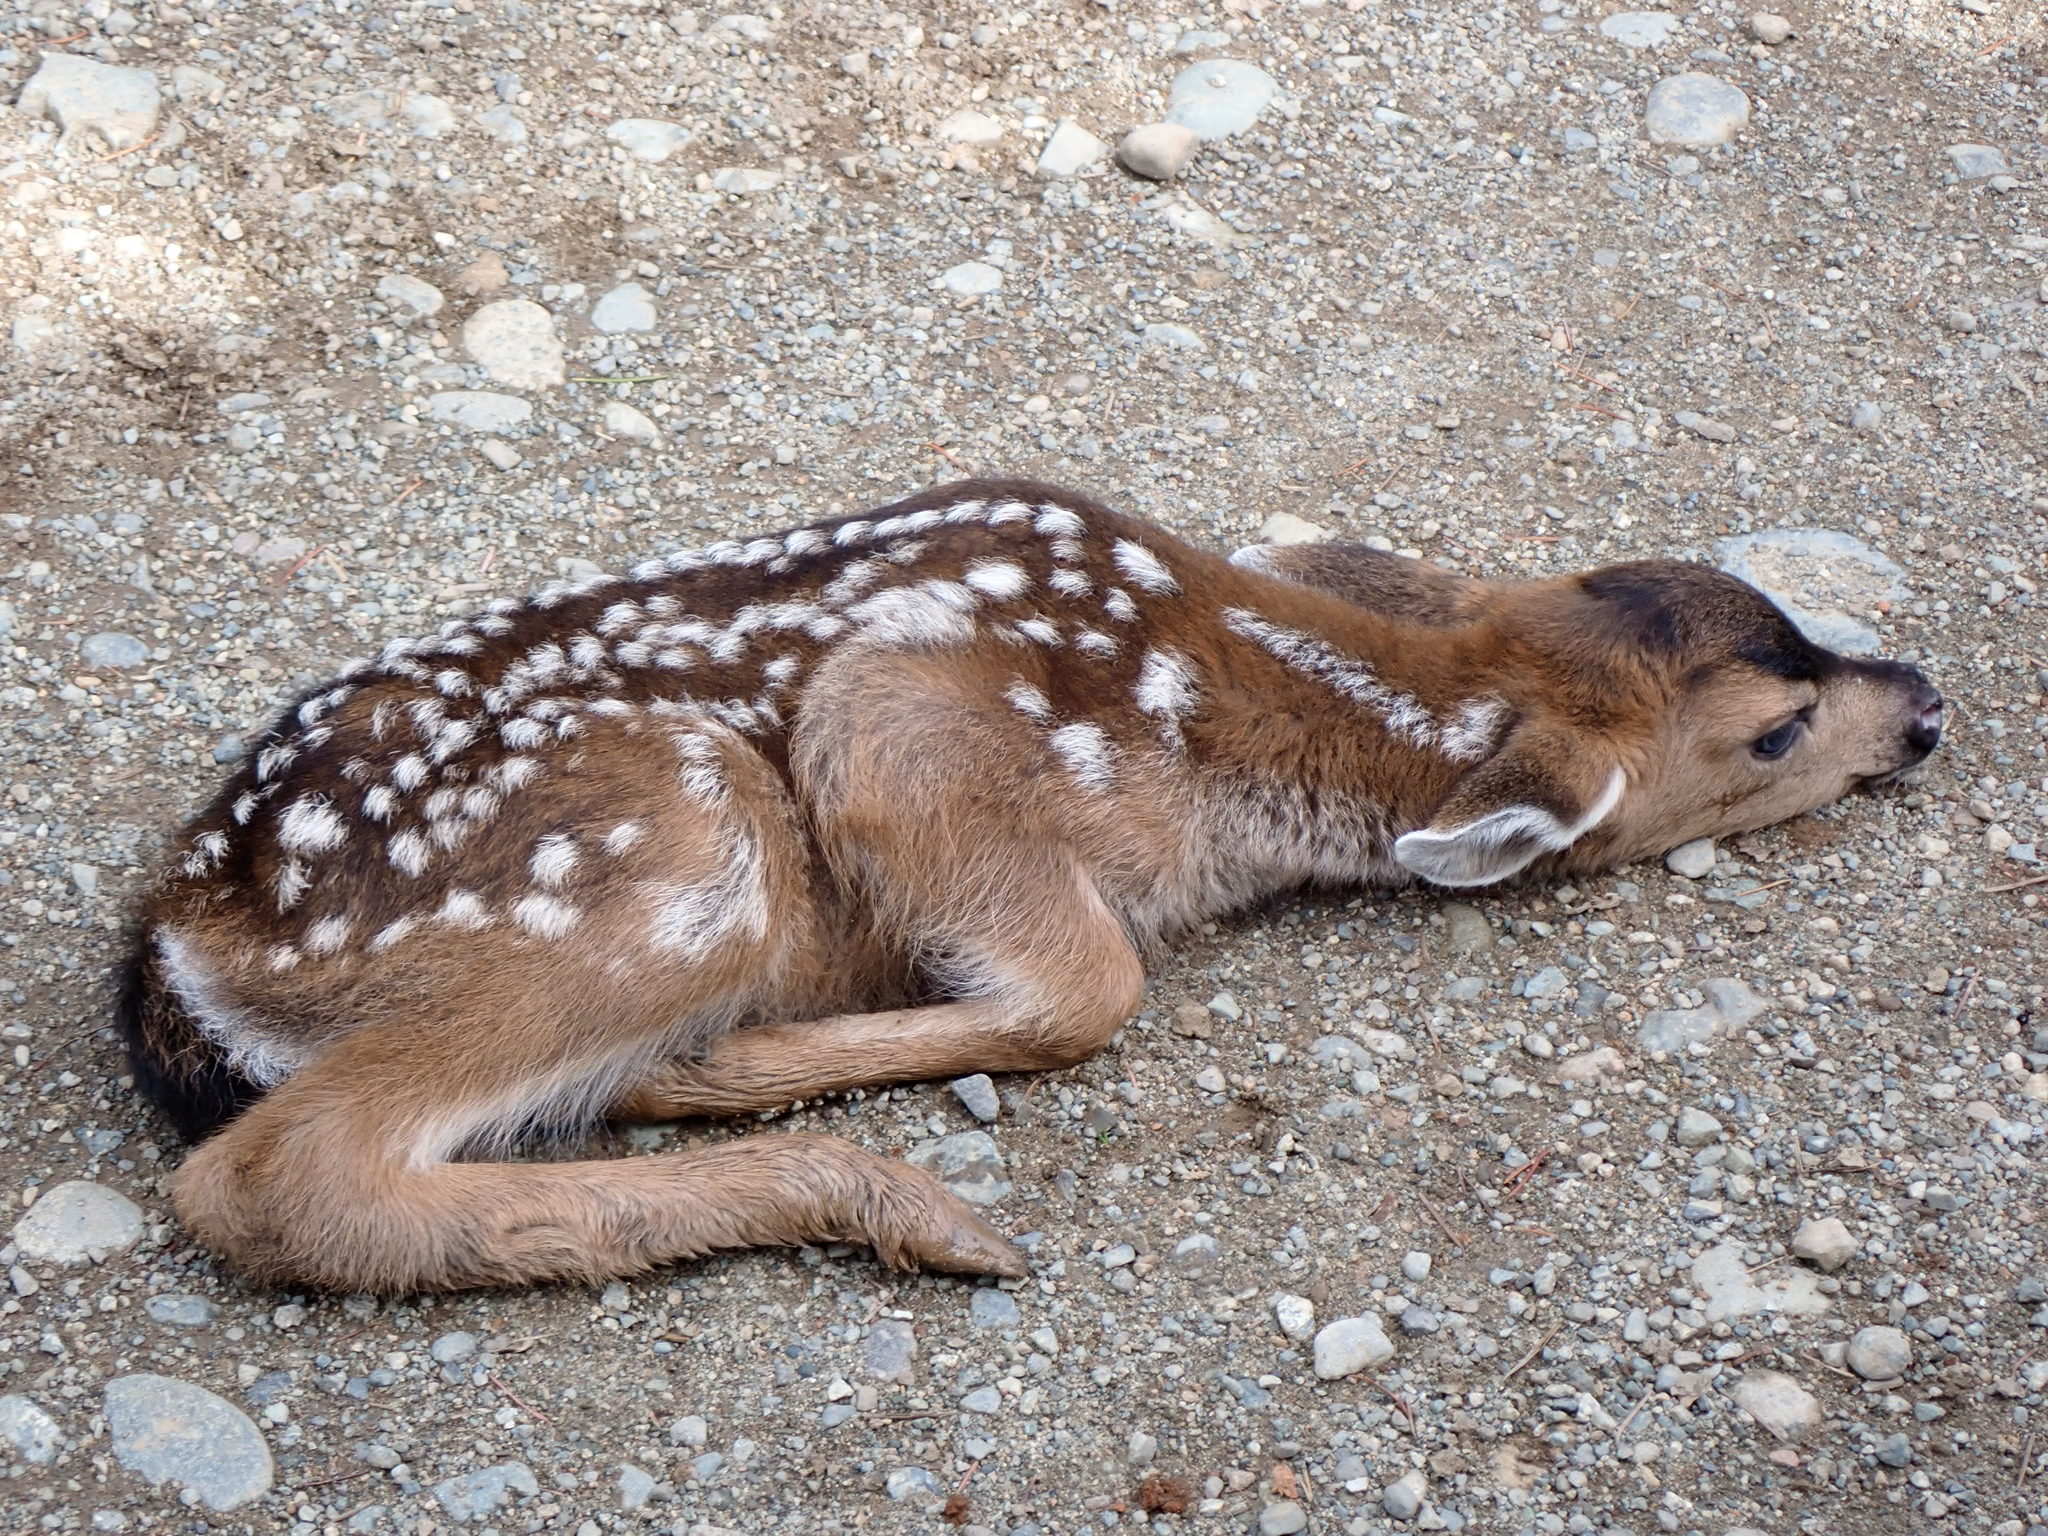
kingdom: Animalia
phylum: Chordata
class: Mammalia
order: Artiodactyla
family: Cervidae
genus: Odocoileus
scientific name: Odocoileus hemionus
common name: Mule deer
